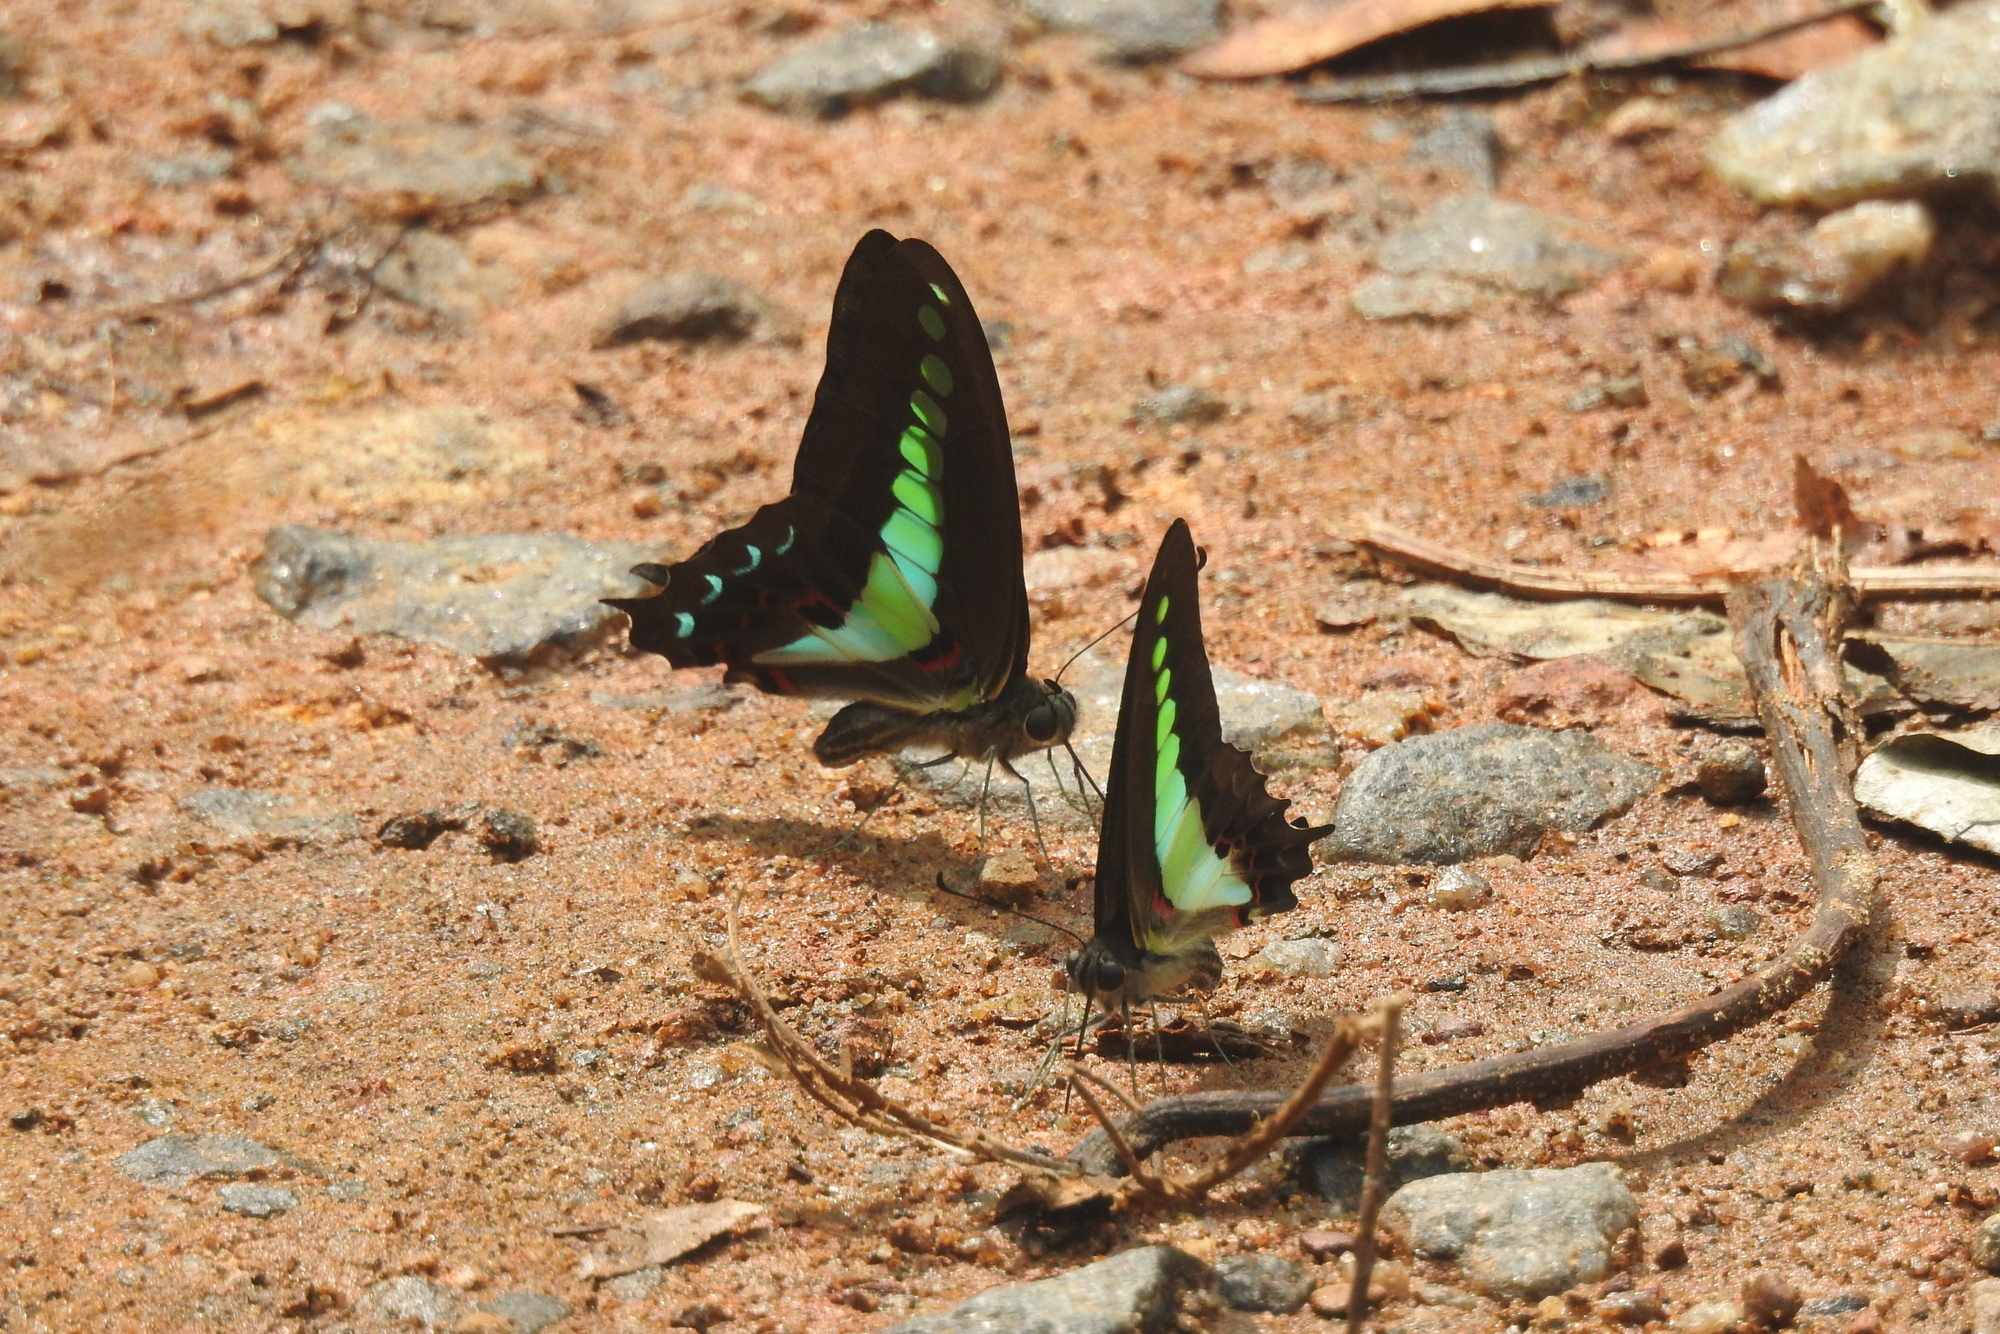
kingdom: Animalia
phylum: Arthropoda
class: Insecta
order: Lepidoptera
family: Papilionidae
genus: Graphium
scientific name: Graphium
